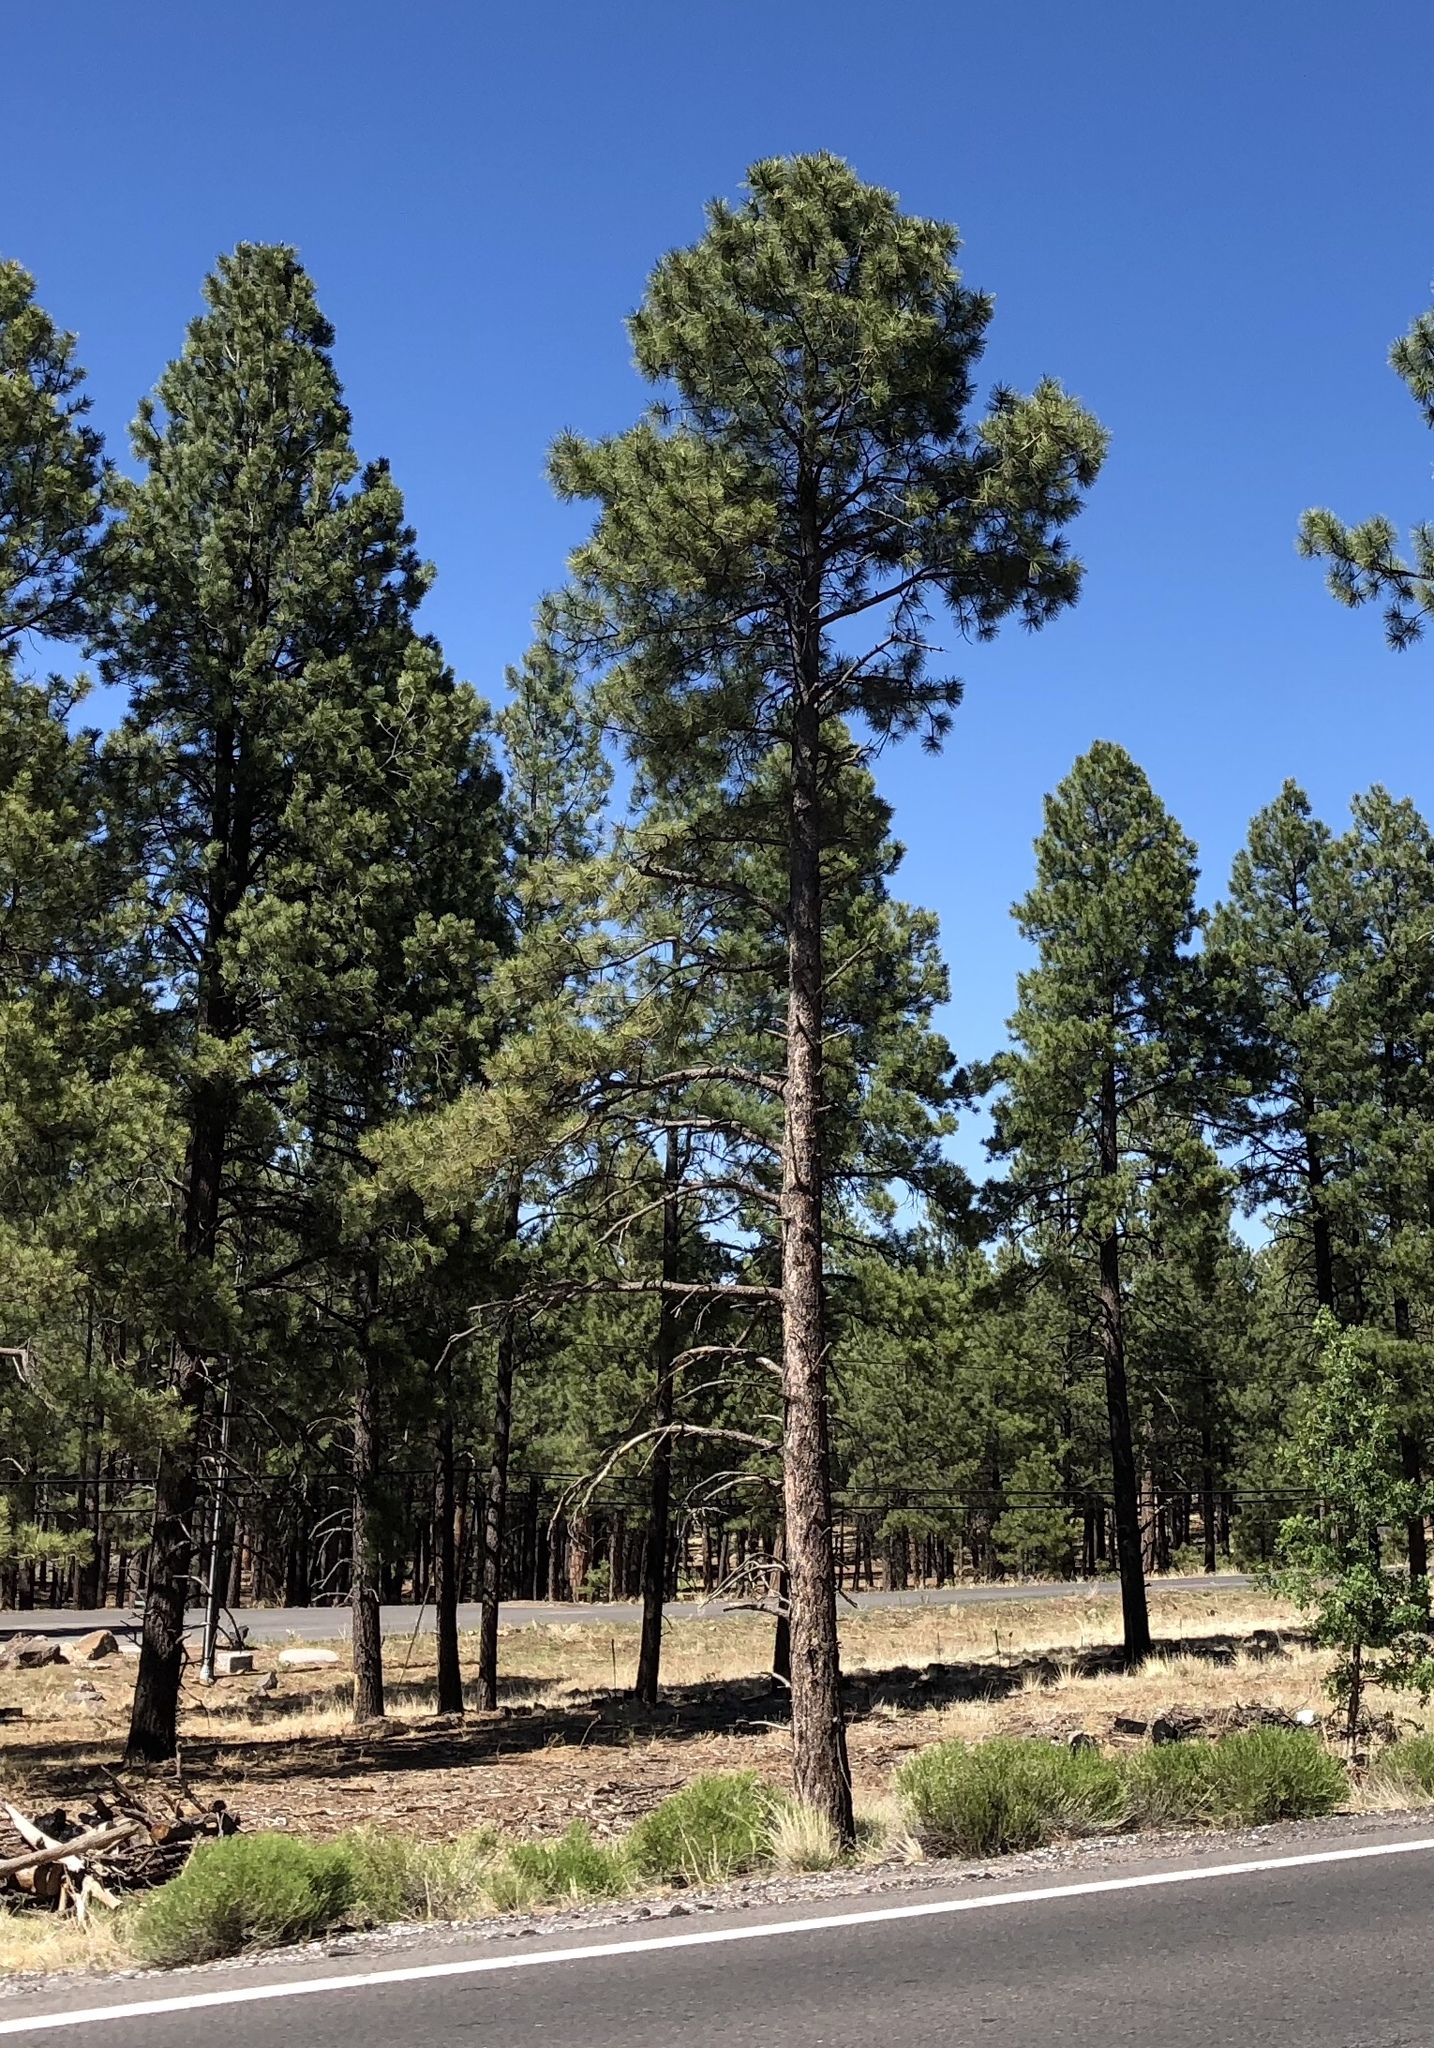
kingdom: Plantae
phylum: Tracheophyta
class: Pinopsida
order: Pinales
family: Pinaceae
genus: Pinus
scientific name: Pinus ponderosa
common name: Western yellow-pine
